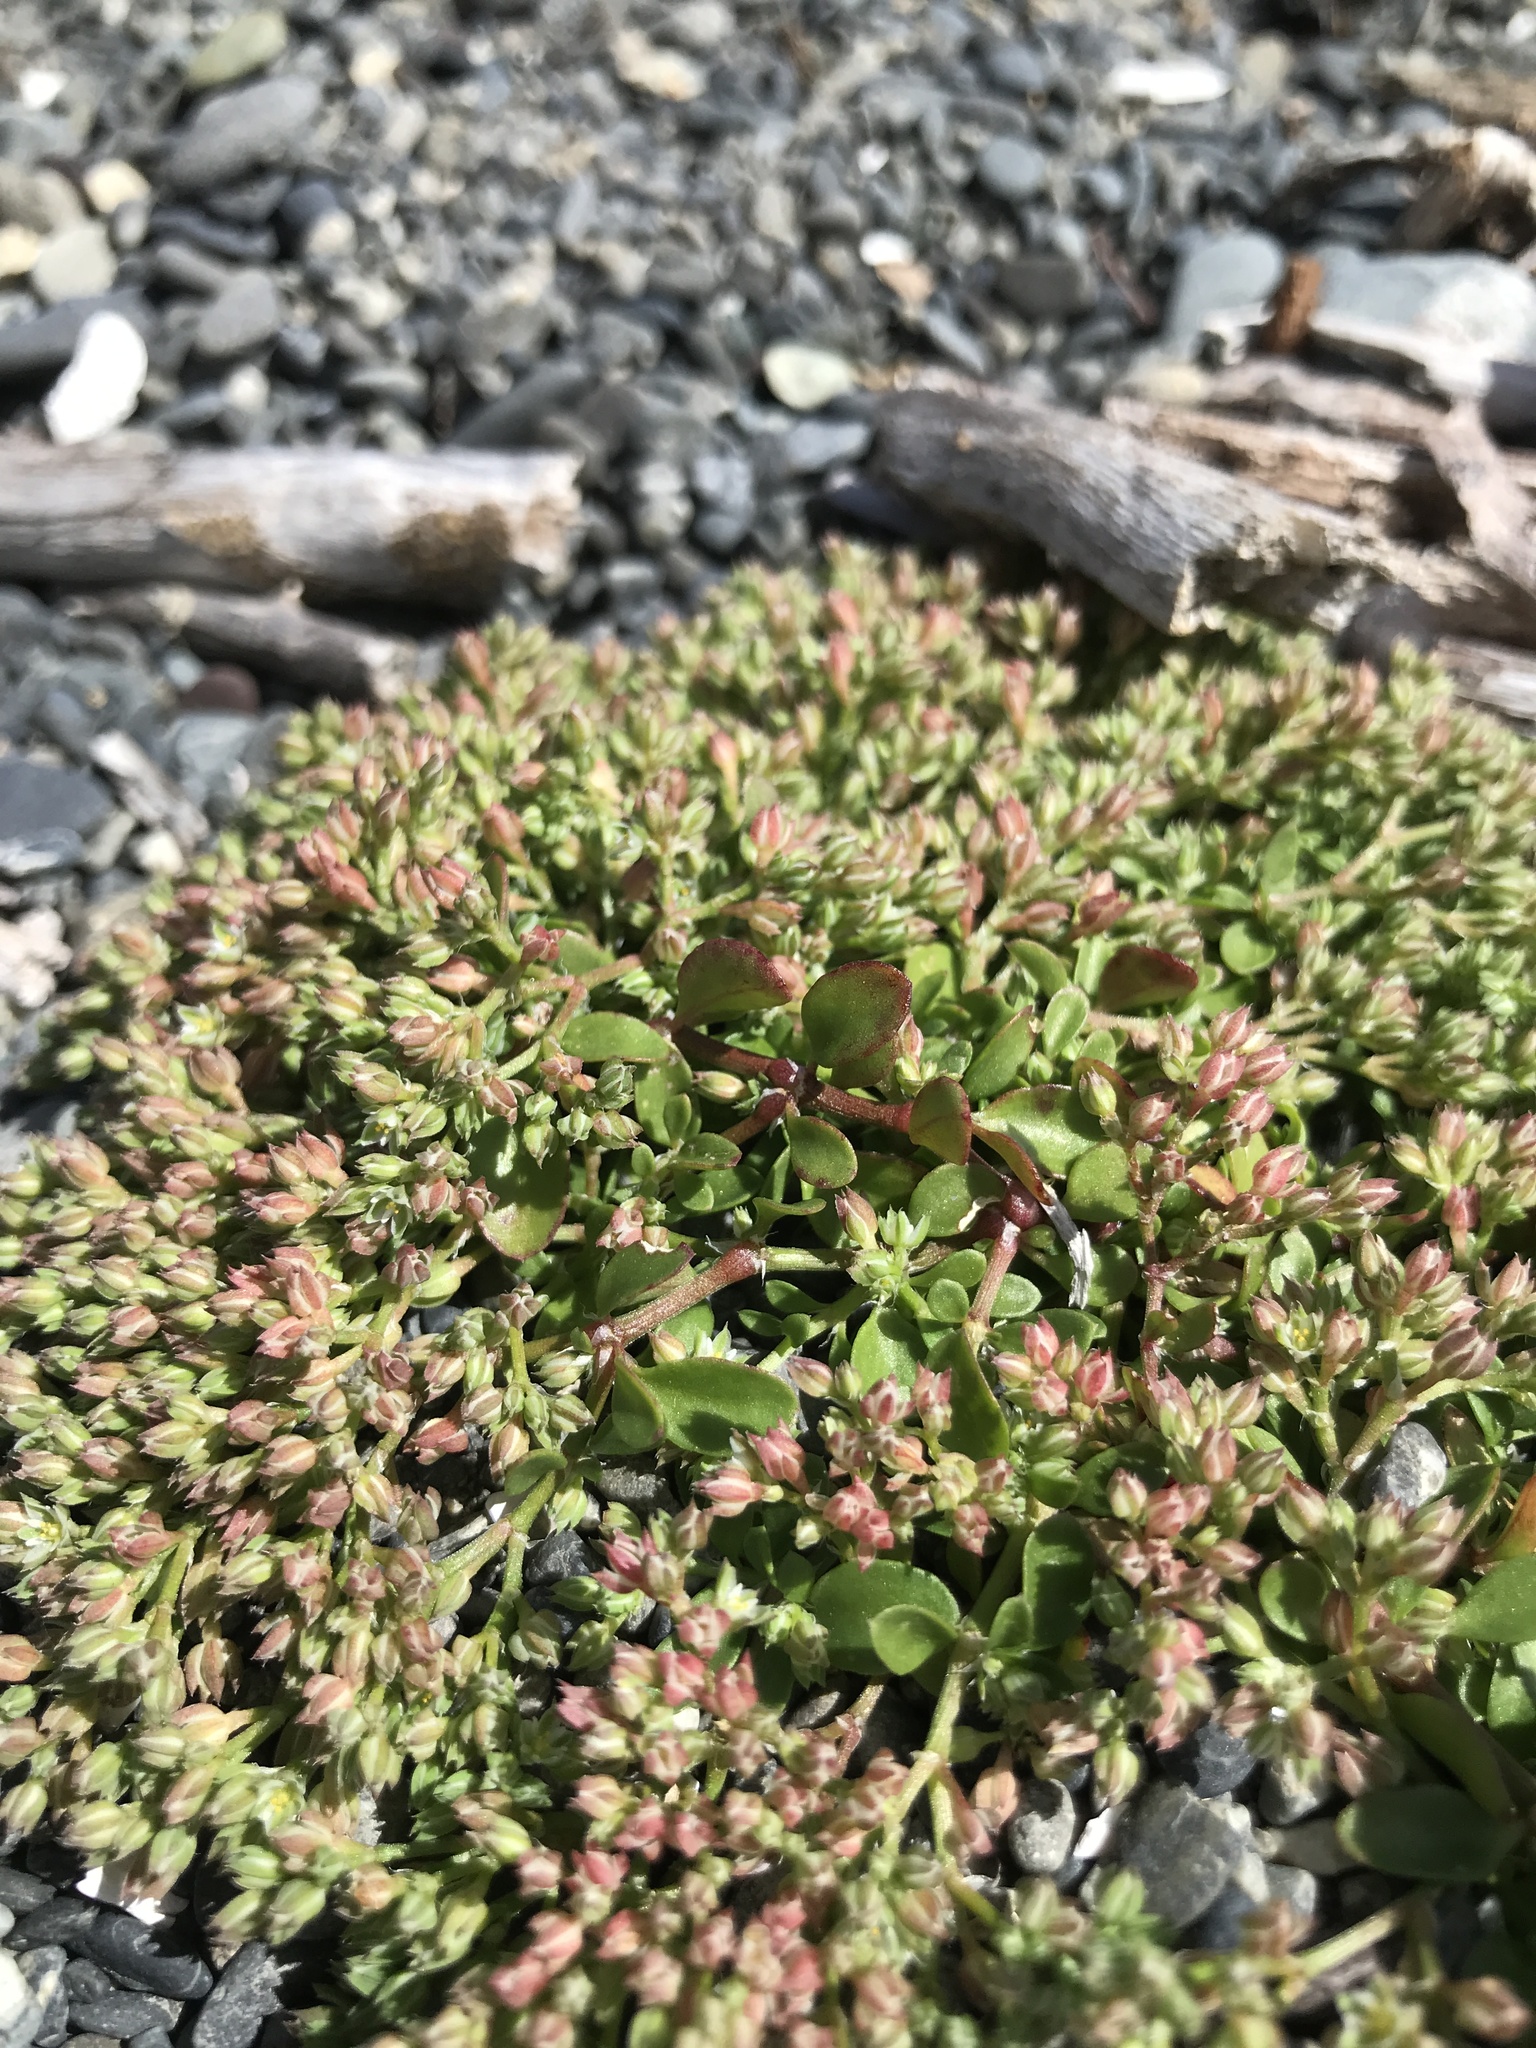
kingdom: Plantae
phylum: Tracheophyta
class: Magnoliopsida
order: Caryophyllales
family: Caryophyllaceae
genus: Polycarpon
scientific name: Polycarpon tetraphyllum
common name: Four-leaved all-seed
